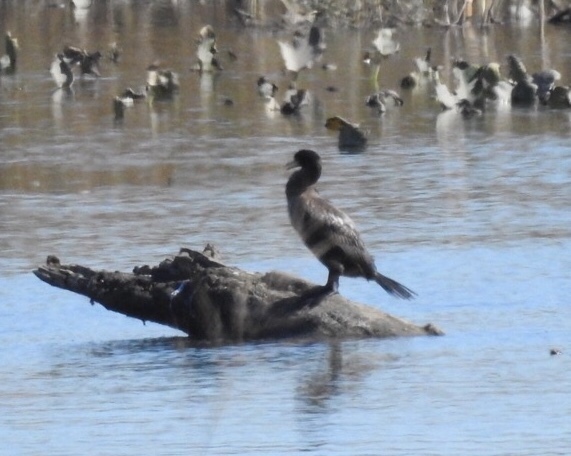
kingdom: Animalia
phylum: Chordata
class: Aves
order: Suliformes
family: Phalacrocoracidae
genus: Phalacrocorax
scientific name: Phalacrocorax auritus
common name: Double-crested cormorant
